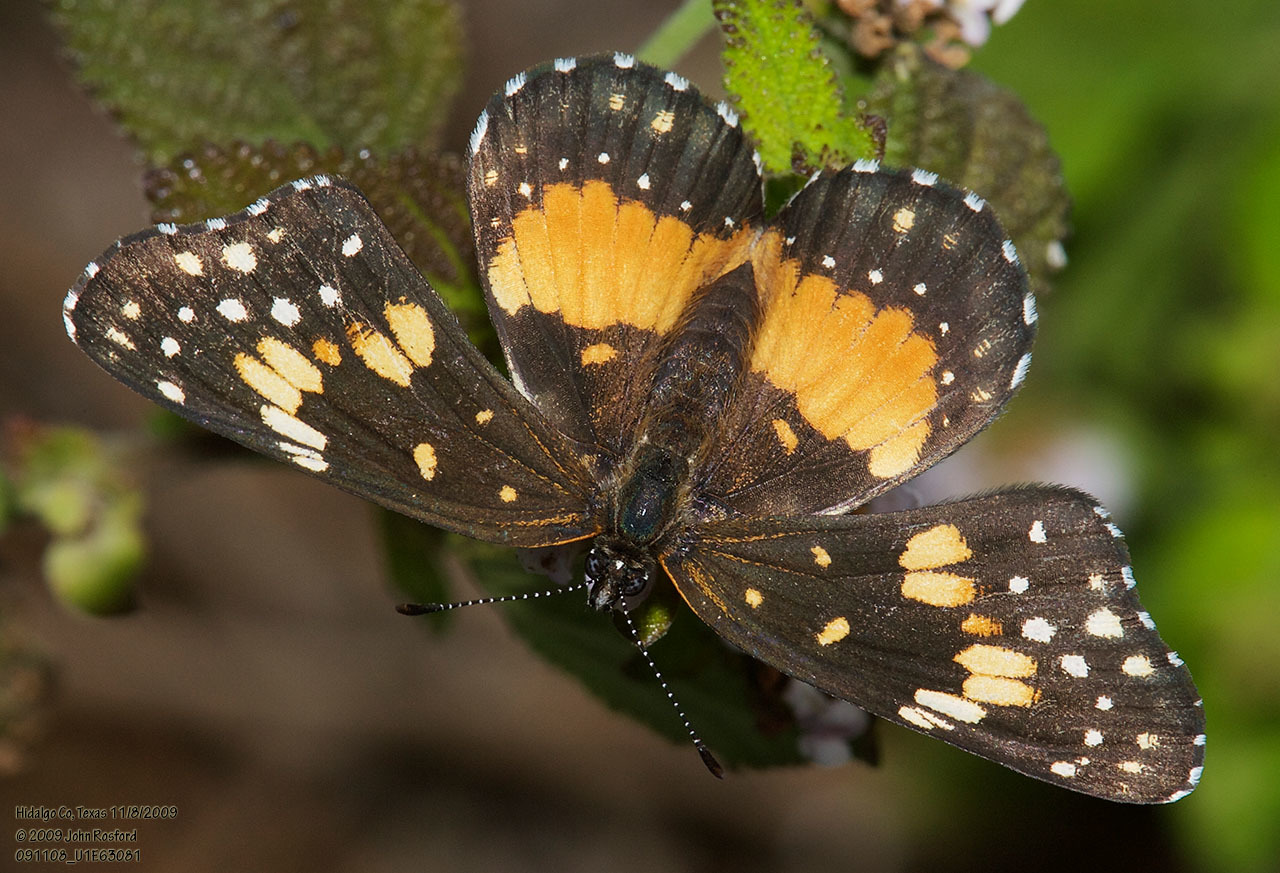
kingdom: Animalia
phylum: Arthropoda
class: Insecta
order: Lepidoptera
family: Nymphalidae
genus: Chlosyne
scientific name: Chlosyne lacinia
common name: Bordered patch
